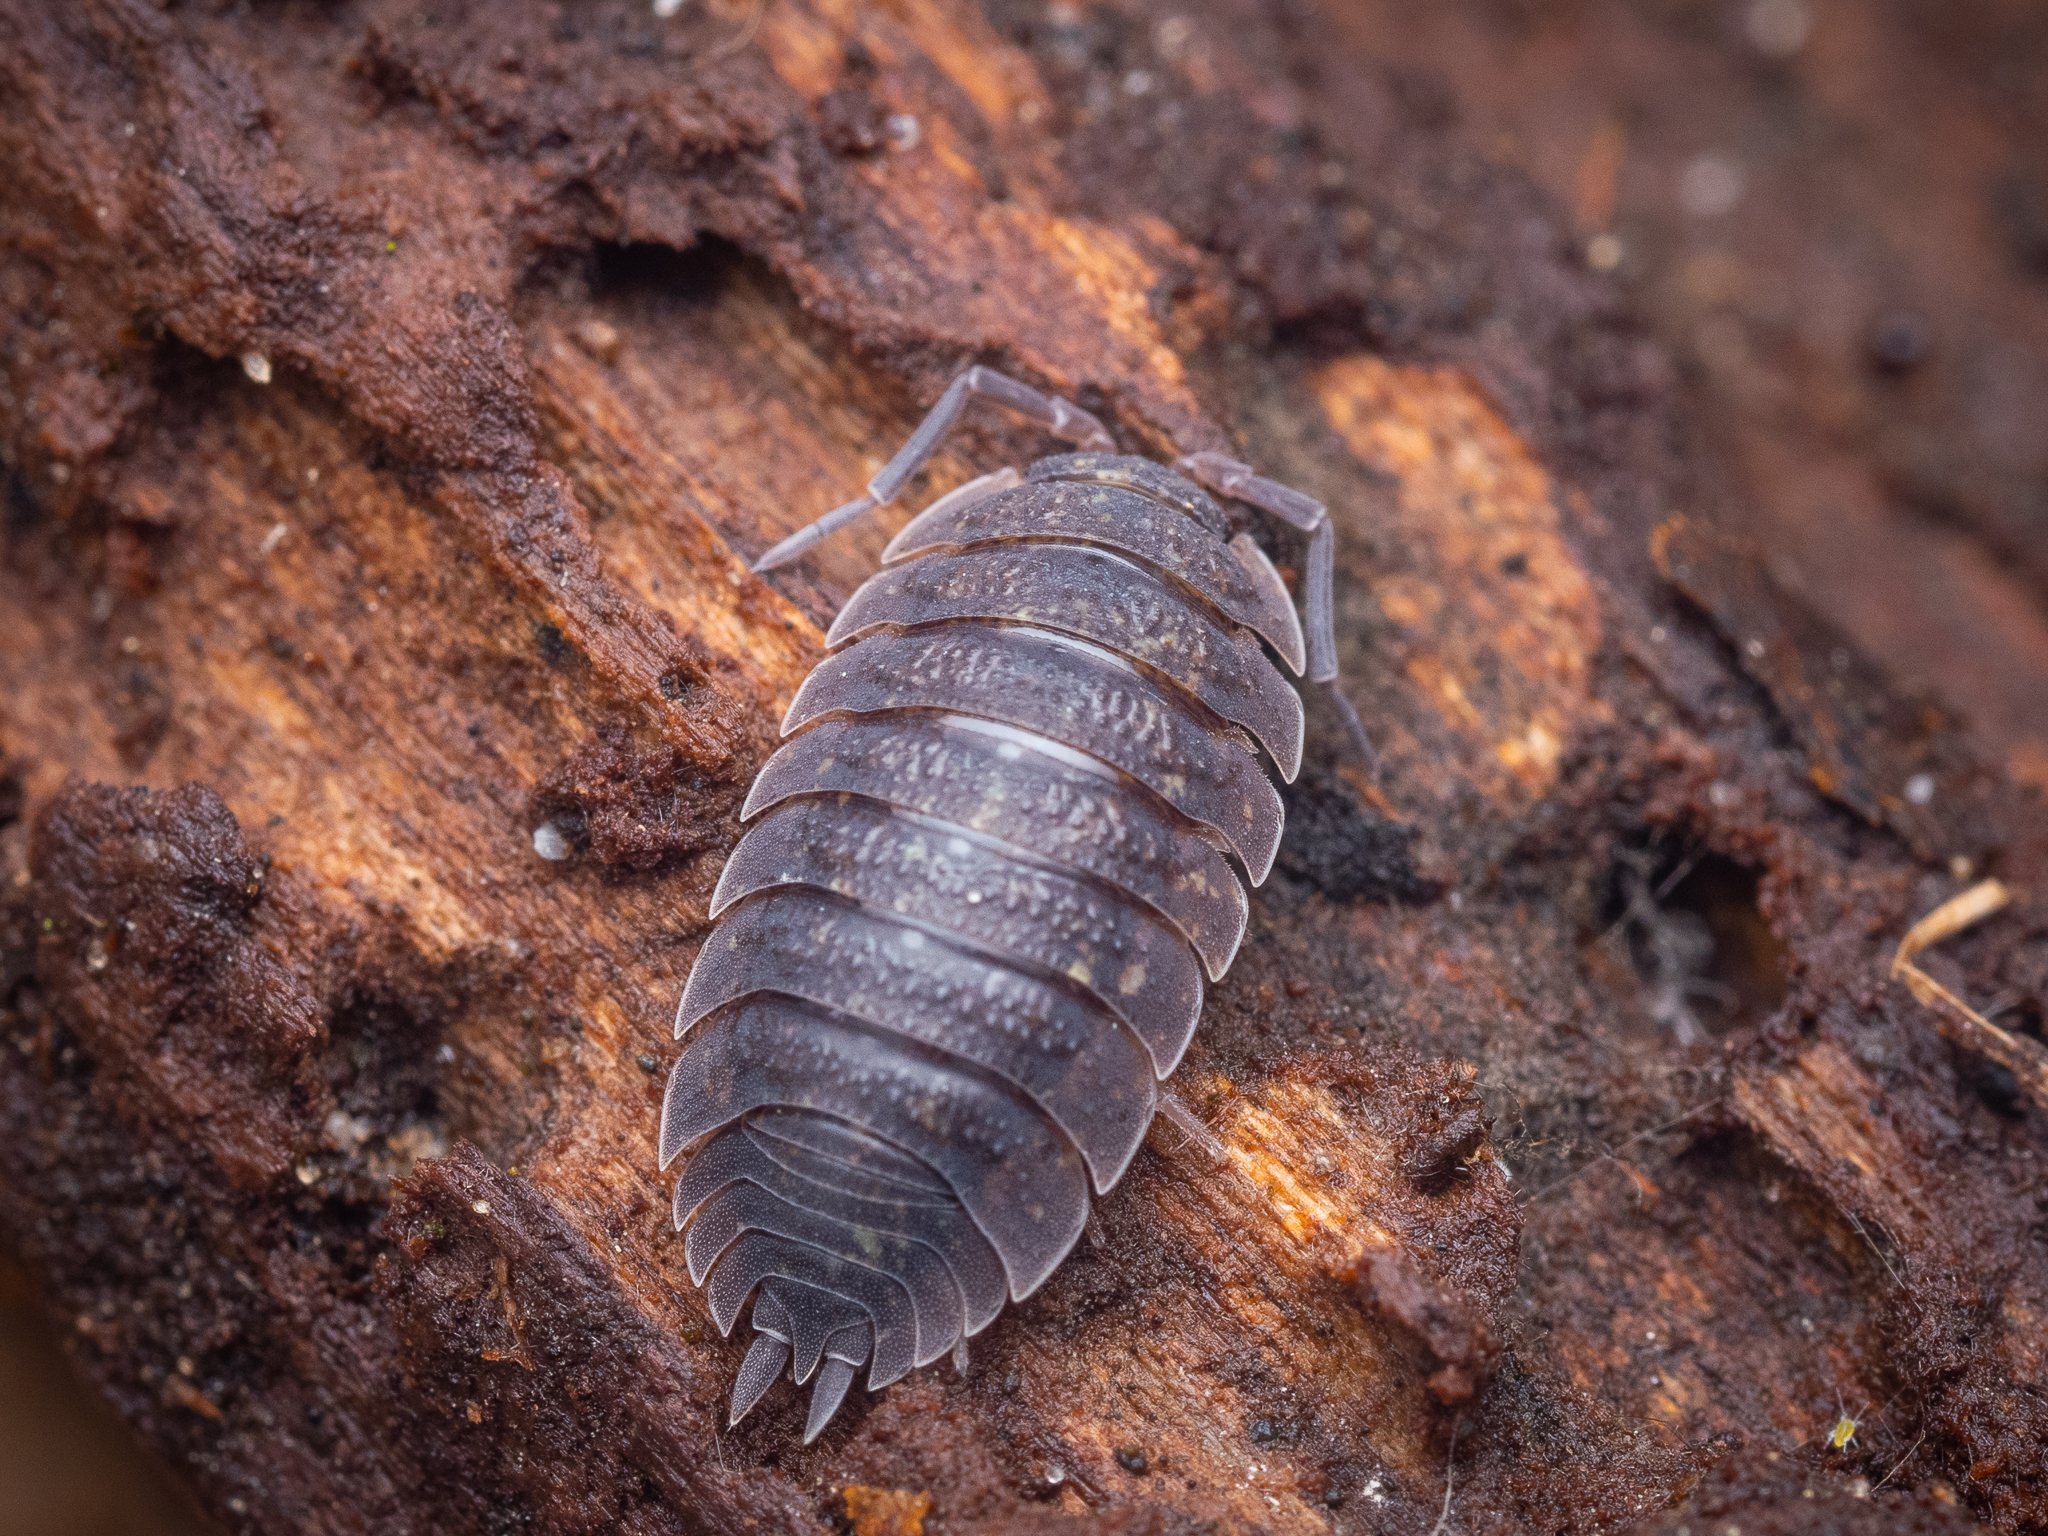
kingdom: Animalia
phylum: Arthropoda
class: Malacostraca
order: Isopoda
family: Porcellionidae
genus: Porcellio
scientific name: Porcellio scaber
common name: Common rough woodlouse
